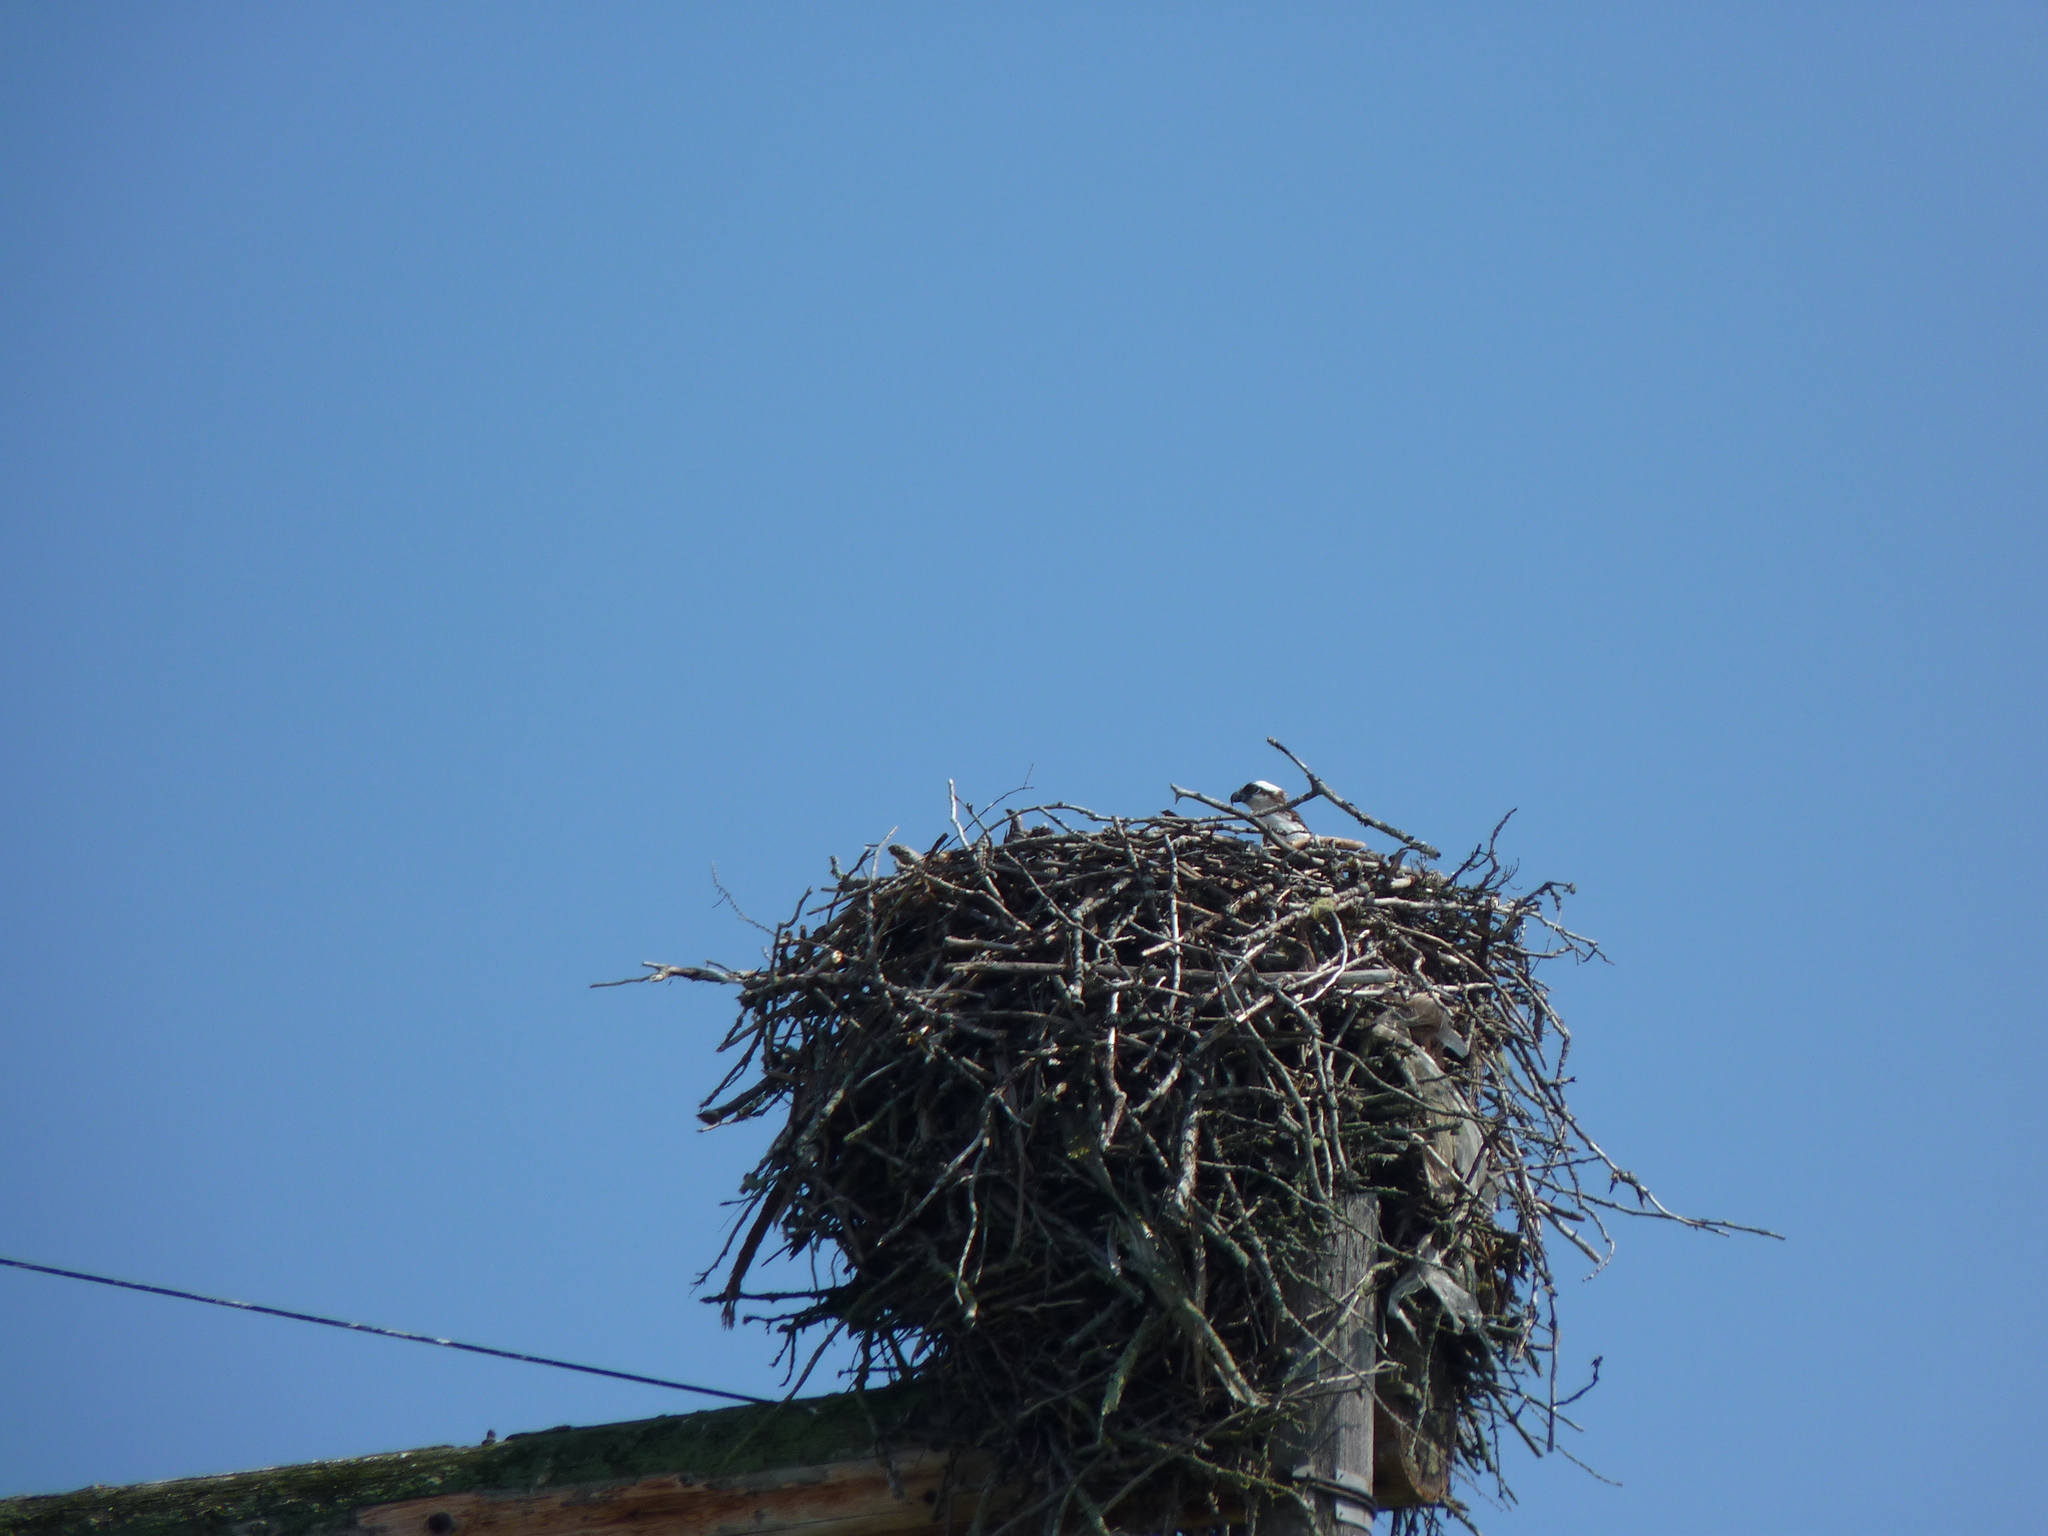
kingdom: Animalia
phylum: Chordata
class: Aves
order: Accipitriformes
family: Pandionidae
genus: Pandion
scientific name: Pandion haliaetus
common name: Osprey
